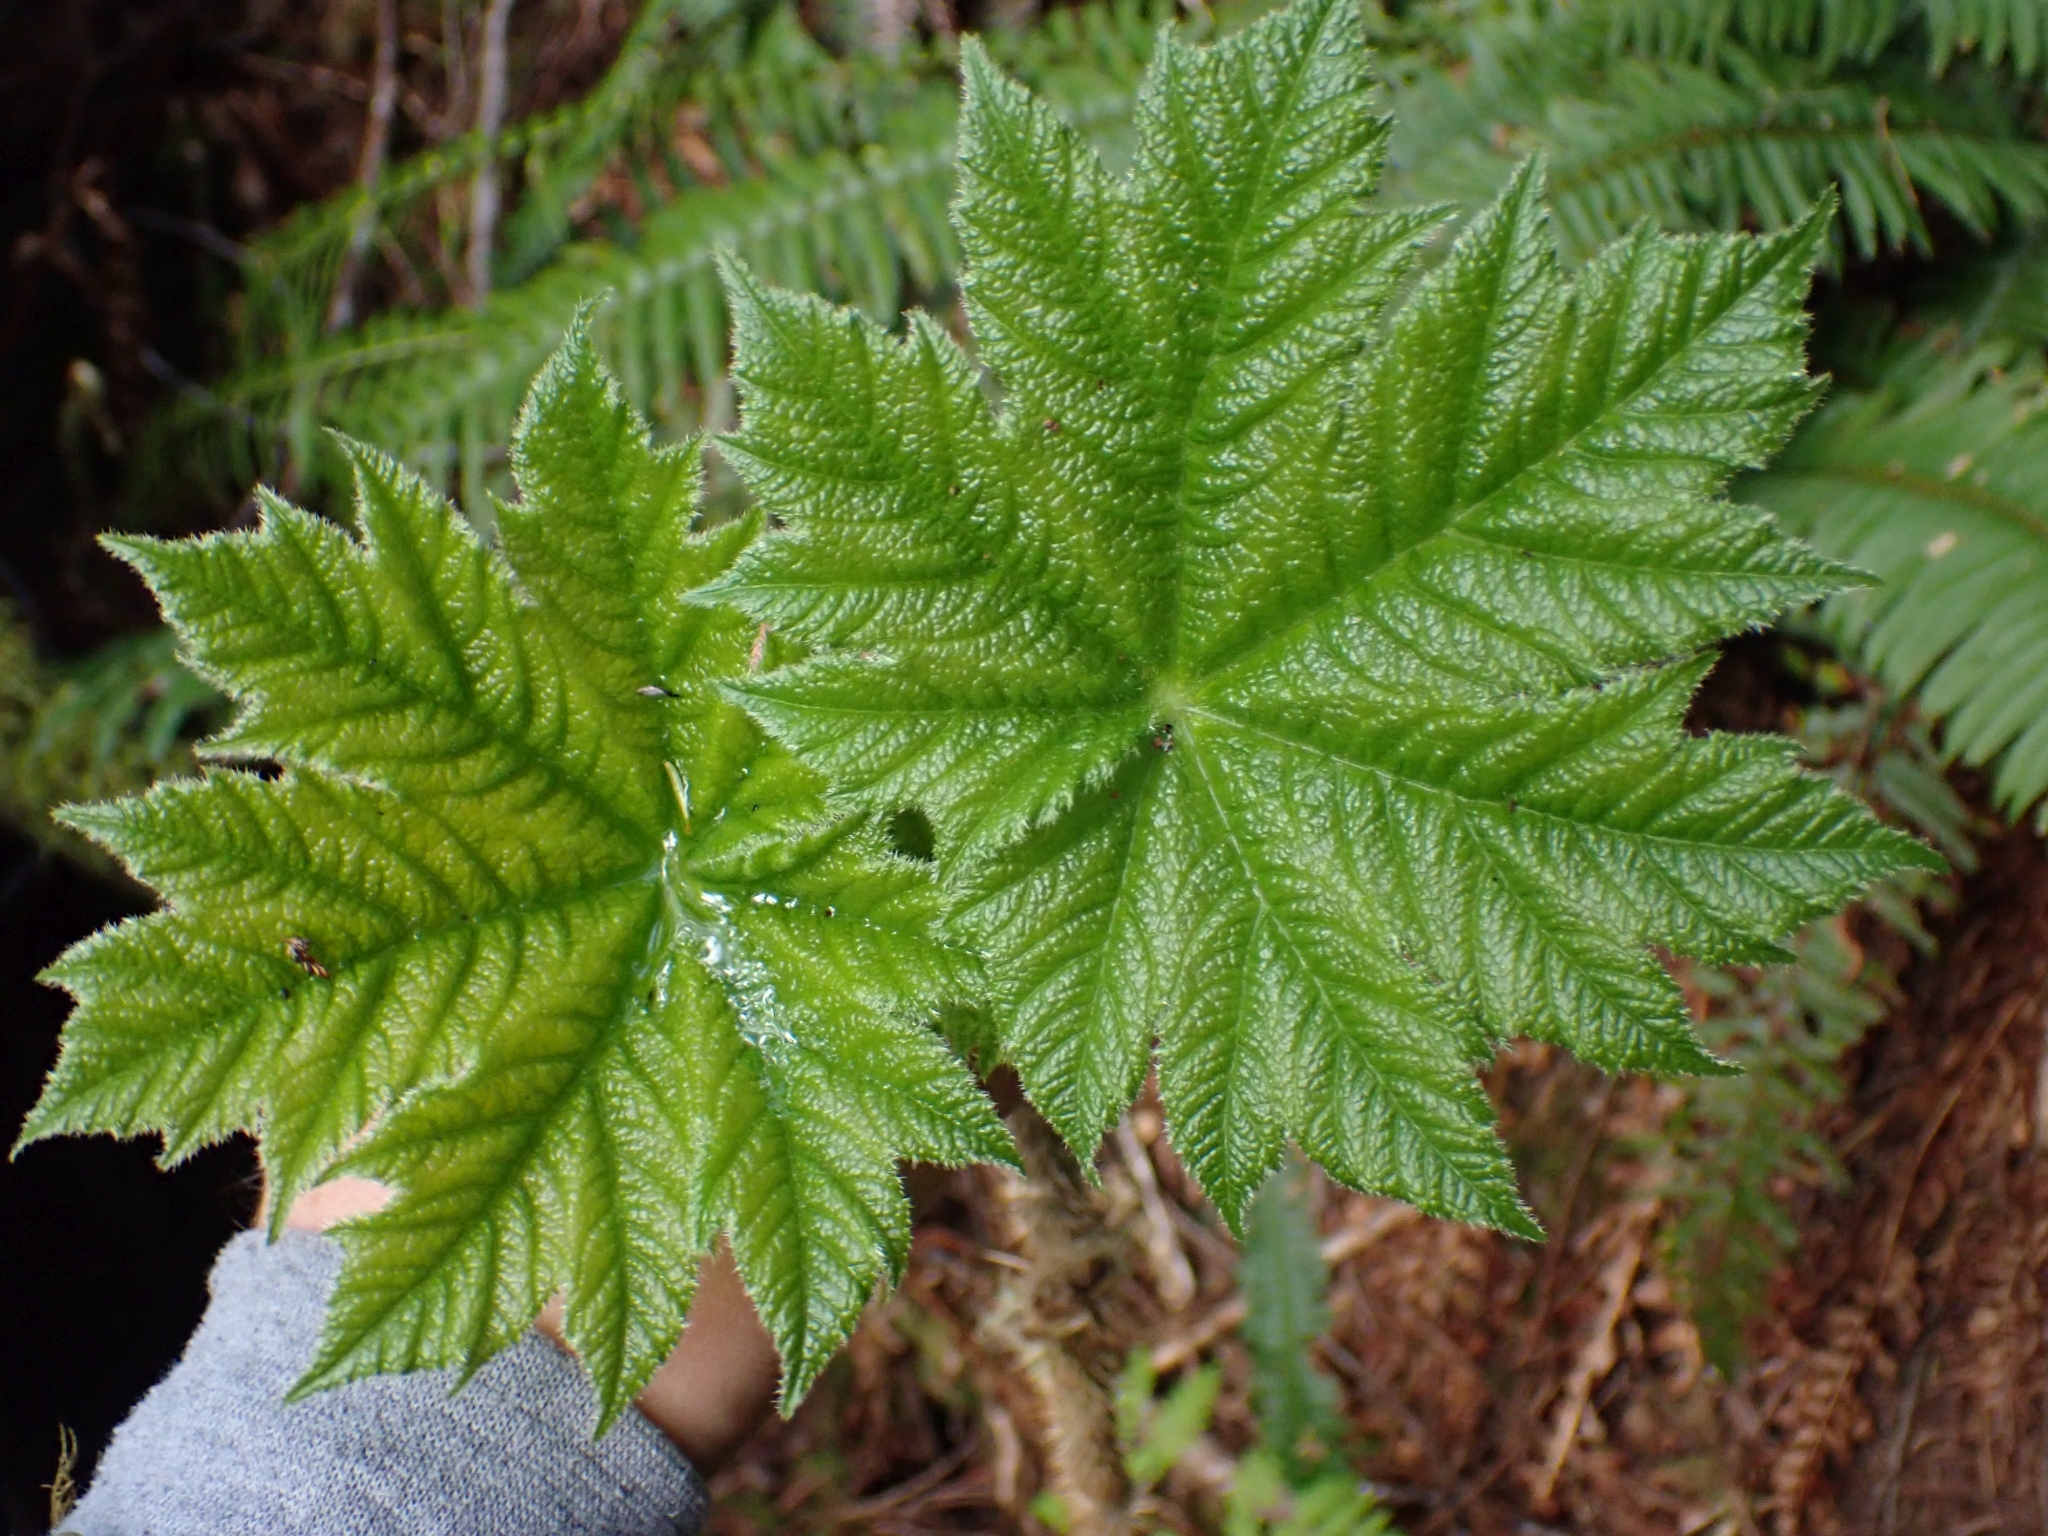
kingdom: Plantae
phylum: Tracheophyta
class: Magnoliopsida
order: Apiales
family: Araliaceae
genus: Oplopanax
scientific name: Oplopanax horridus
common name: Devil's walking-stick
